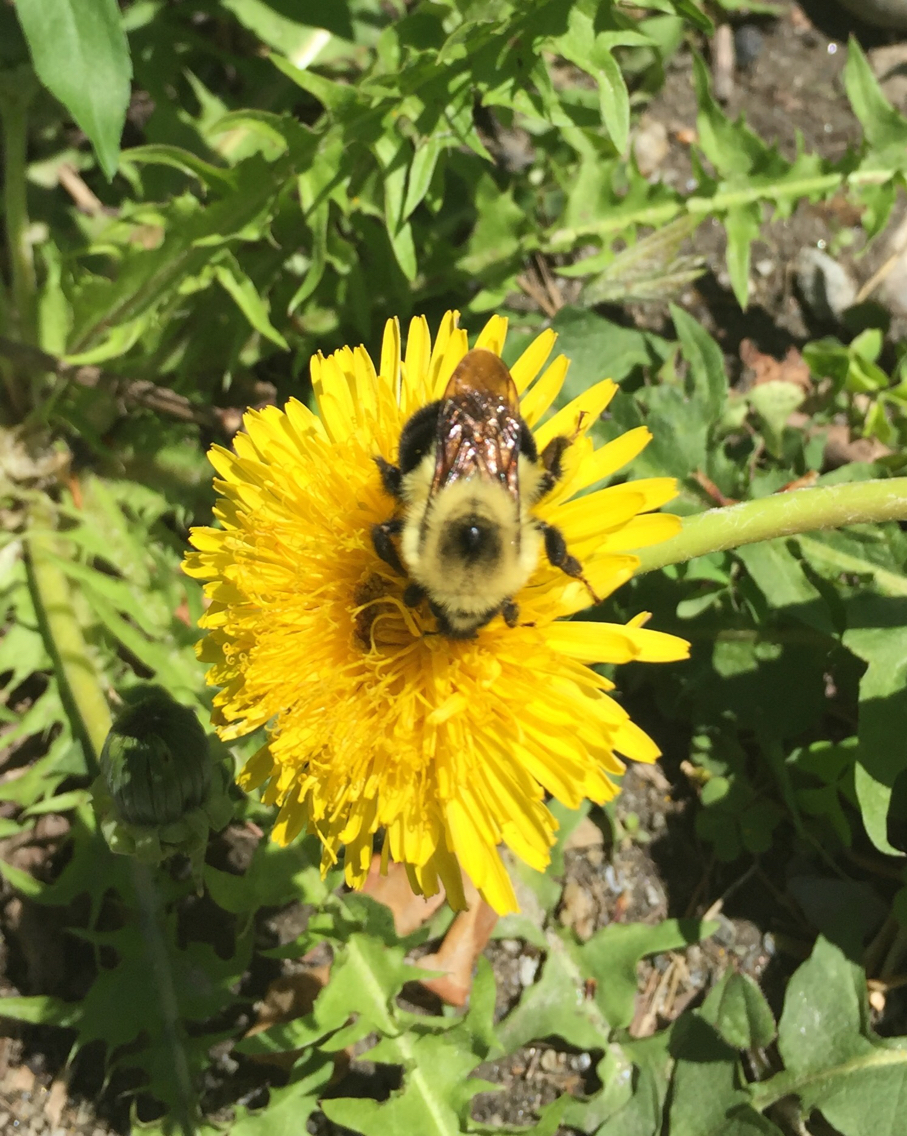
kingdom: Animalia
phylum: Arthropoda
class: Insecta
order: Hymenoptera
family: Apidae
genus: Bombus
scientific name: Bombus bimaculatus
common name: Two-spotted bumble bee
